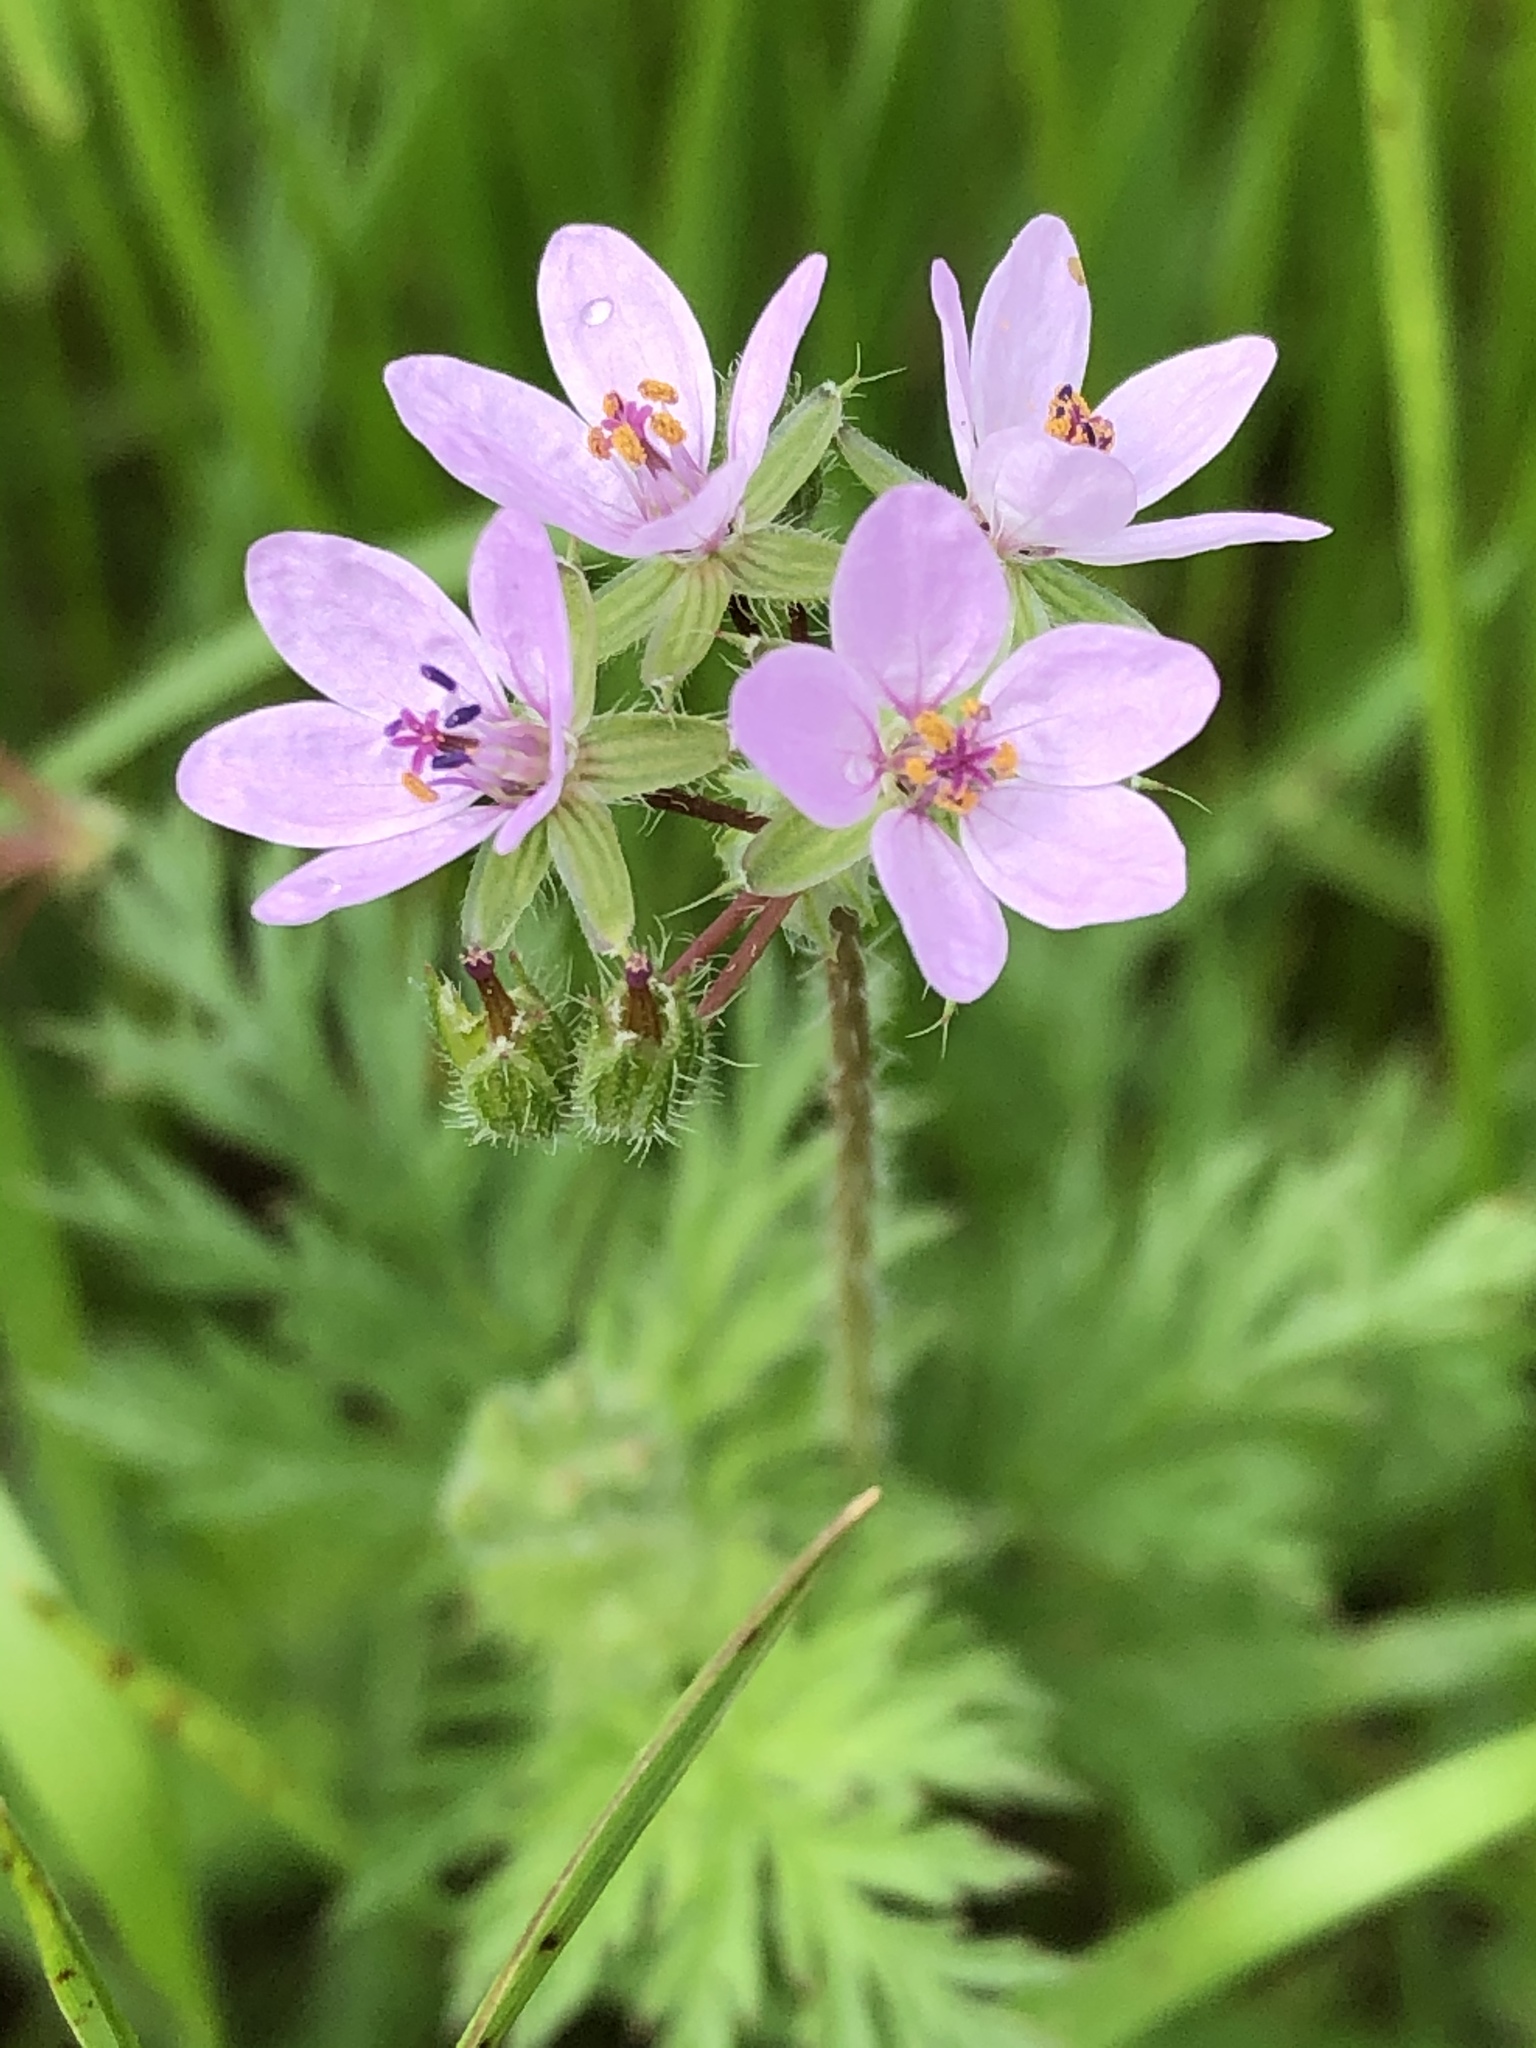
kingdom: Plantae
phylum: Tracheophyta
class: Magnoliopsida
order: Geraniales
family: Geraniaceae
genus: Erodium
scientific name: Erodium cicutarium
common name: Common stork's-bill
